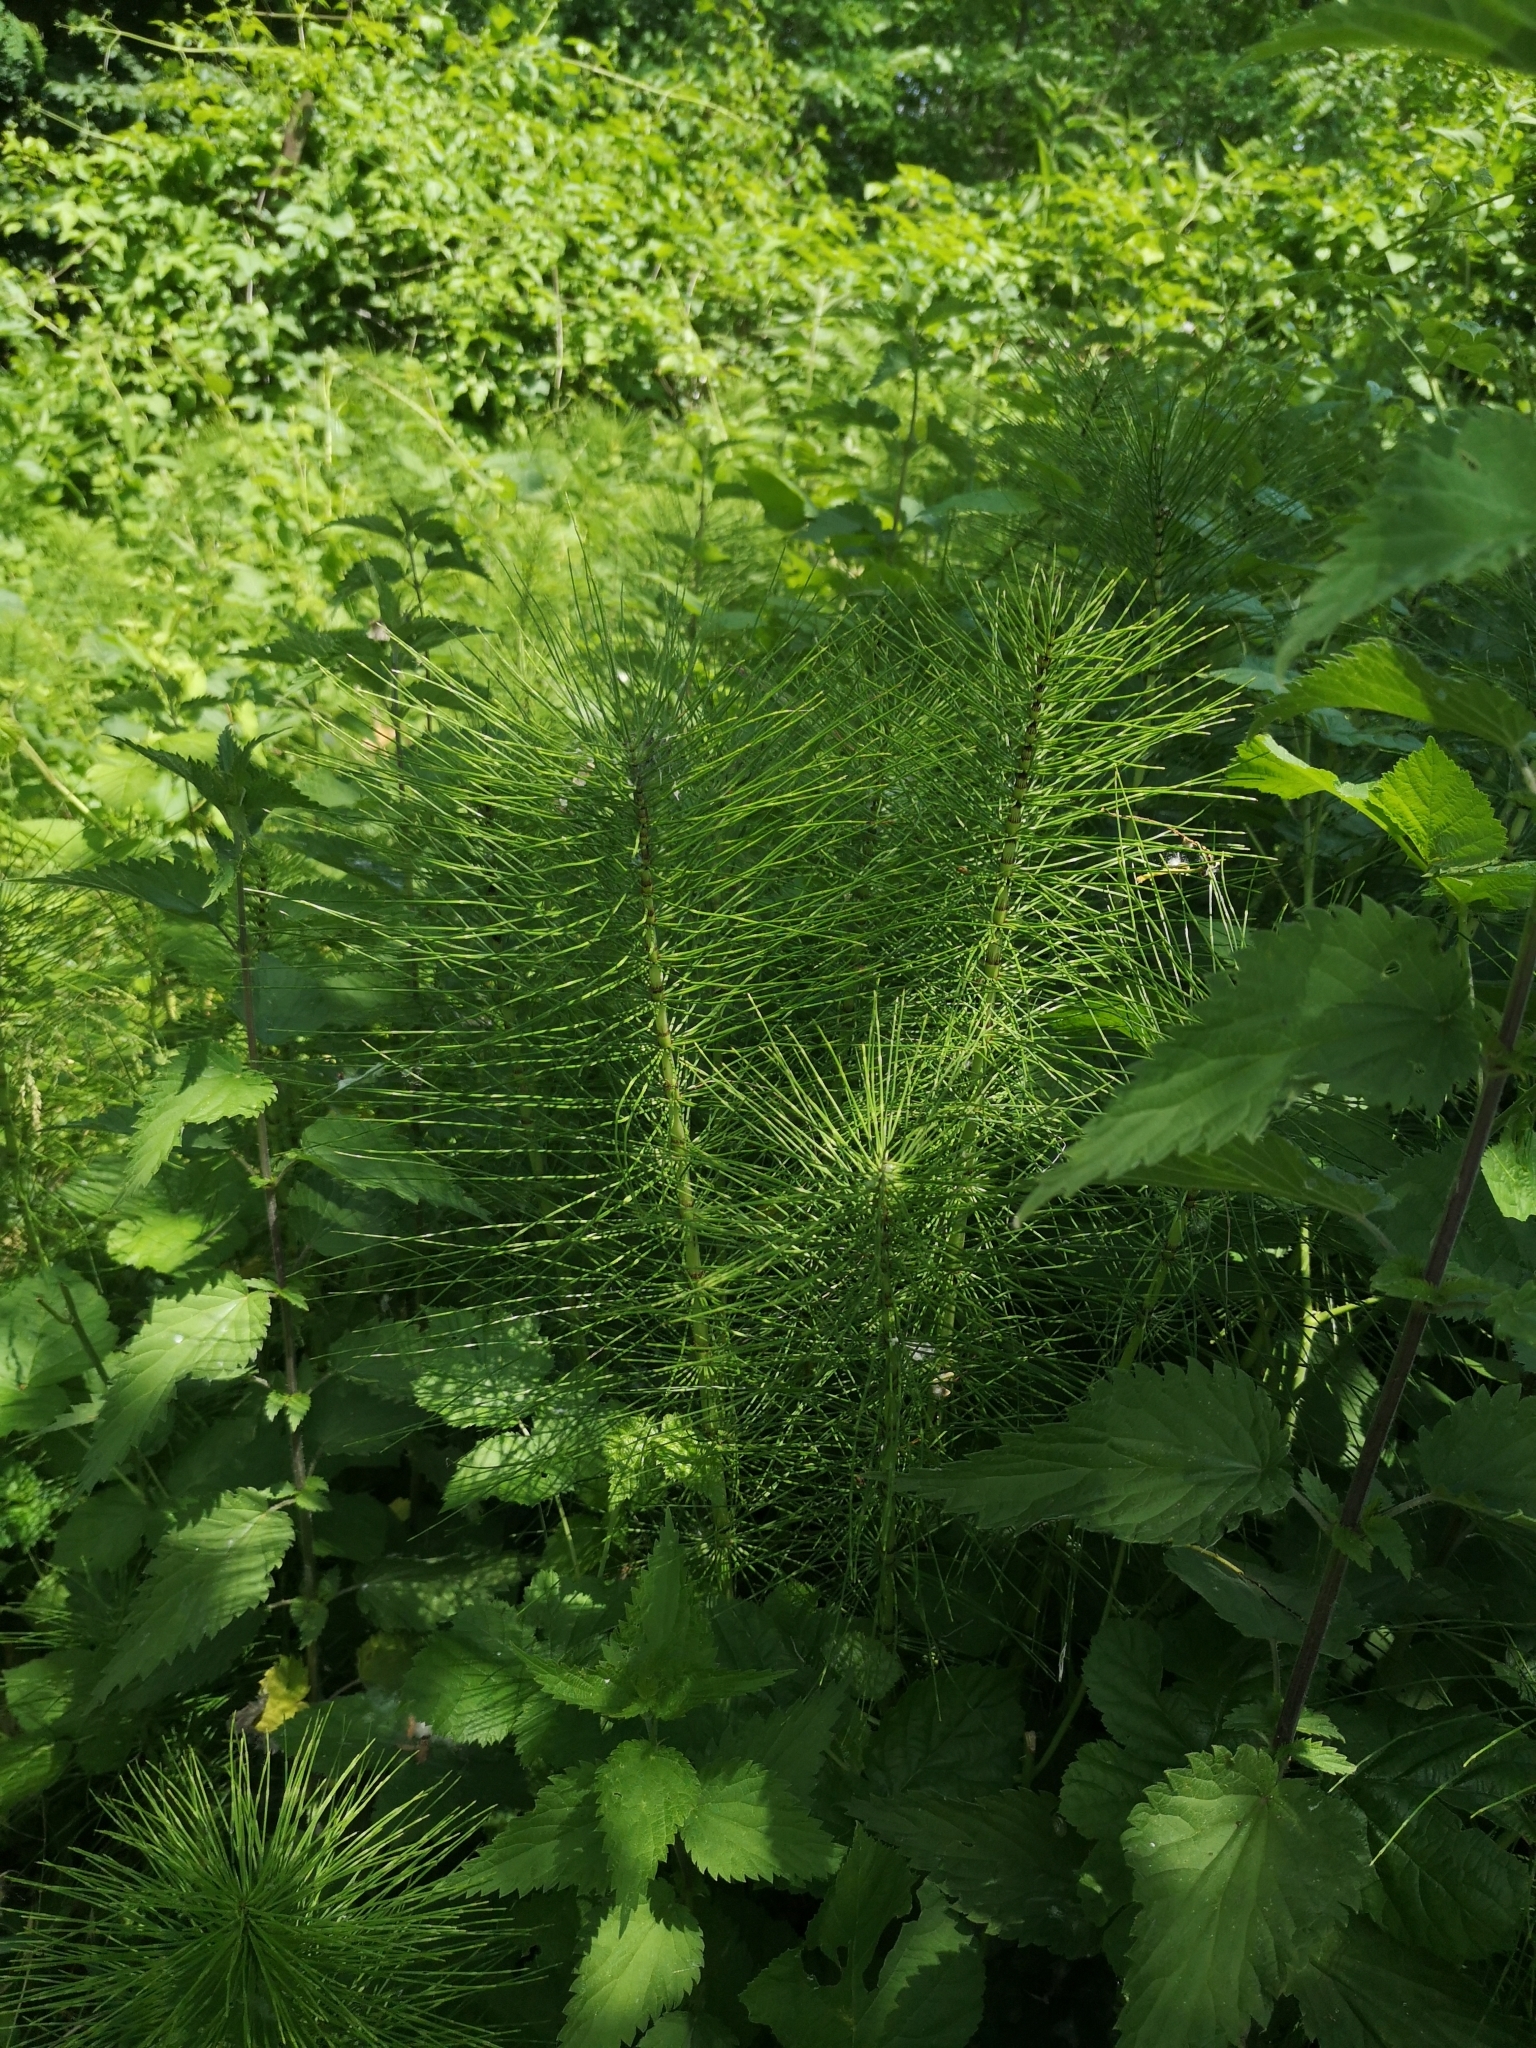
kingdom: Plantae
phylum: Tracheophyta
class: Polypodiopsida
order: Equisetales
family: Equisetaceae
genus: Equisetum
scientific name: Equisetum telmateia
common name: Great horsetail
